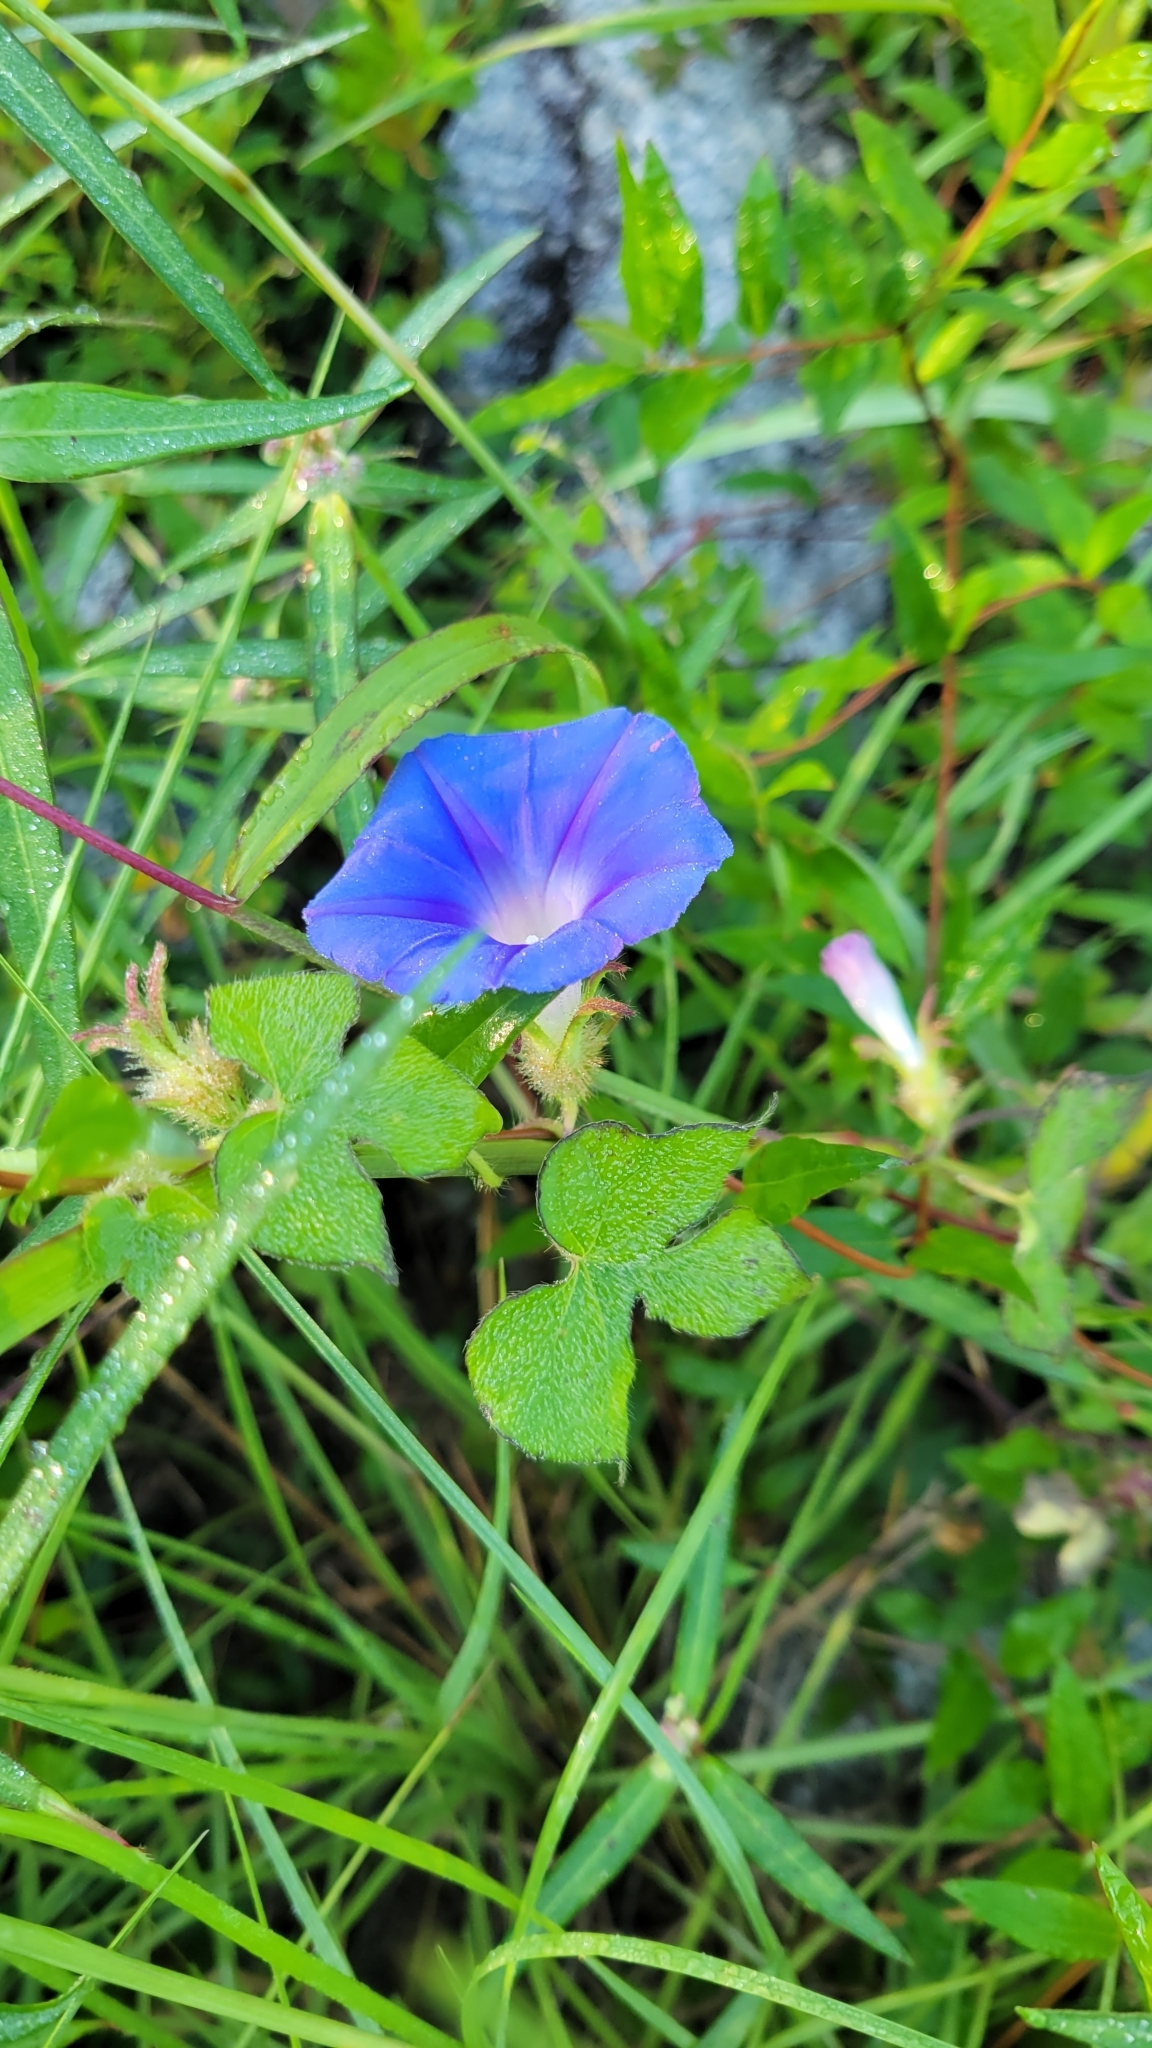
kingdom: Plantae
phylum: Tracheophyta
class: Magnoliopsida
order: Solanales
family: Convolvulaceae
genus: Ipomoea
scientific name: Ipomoea hederacea
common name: Ivy-leaved morning-glory
